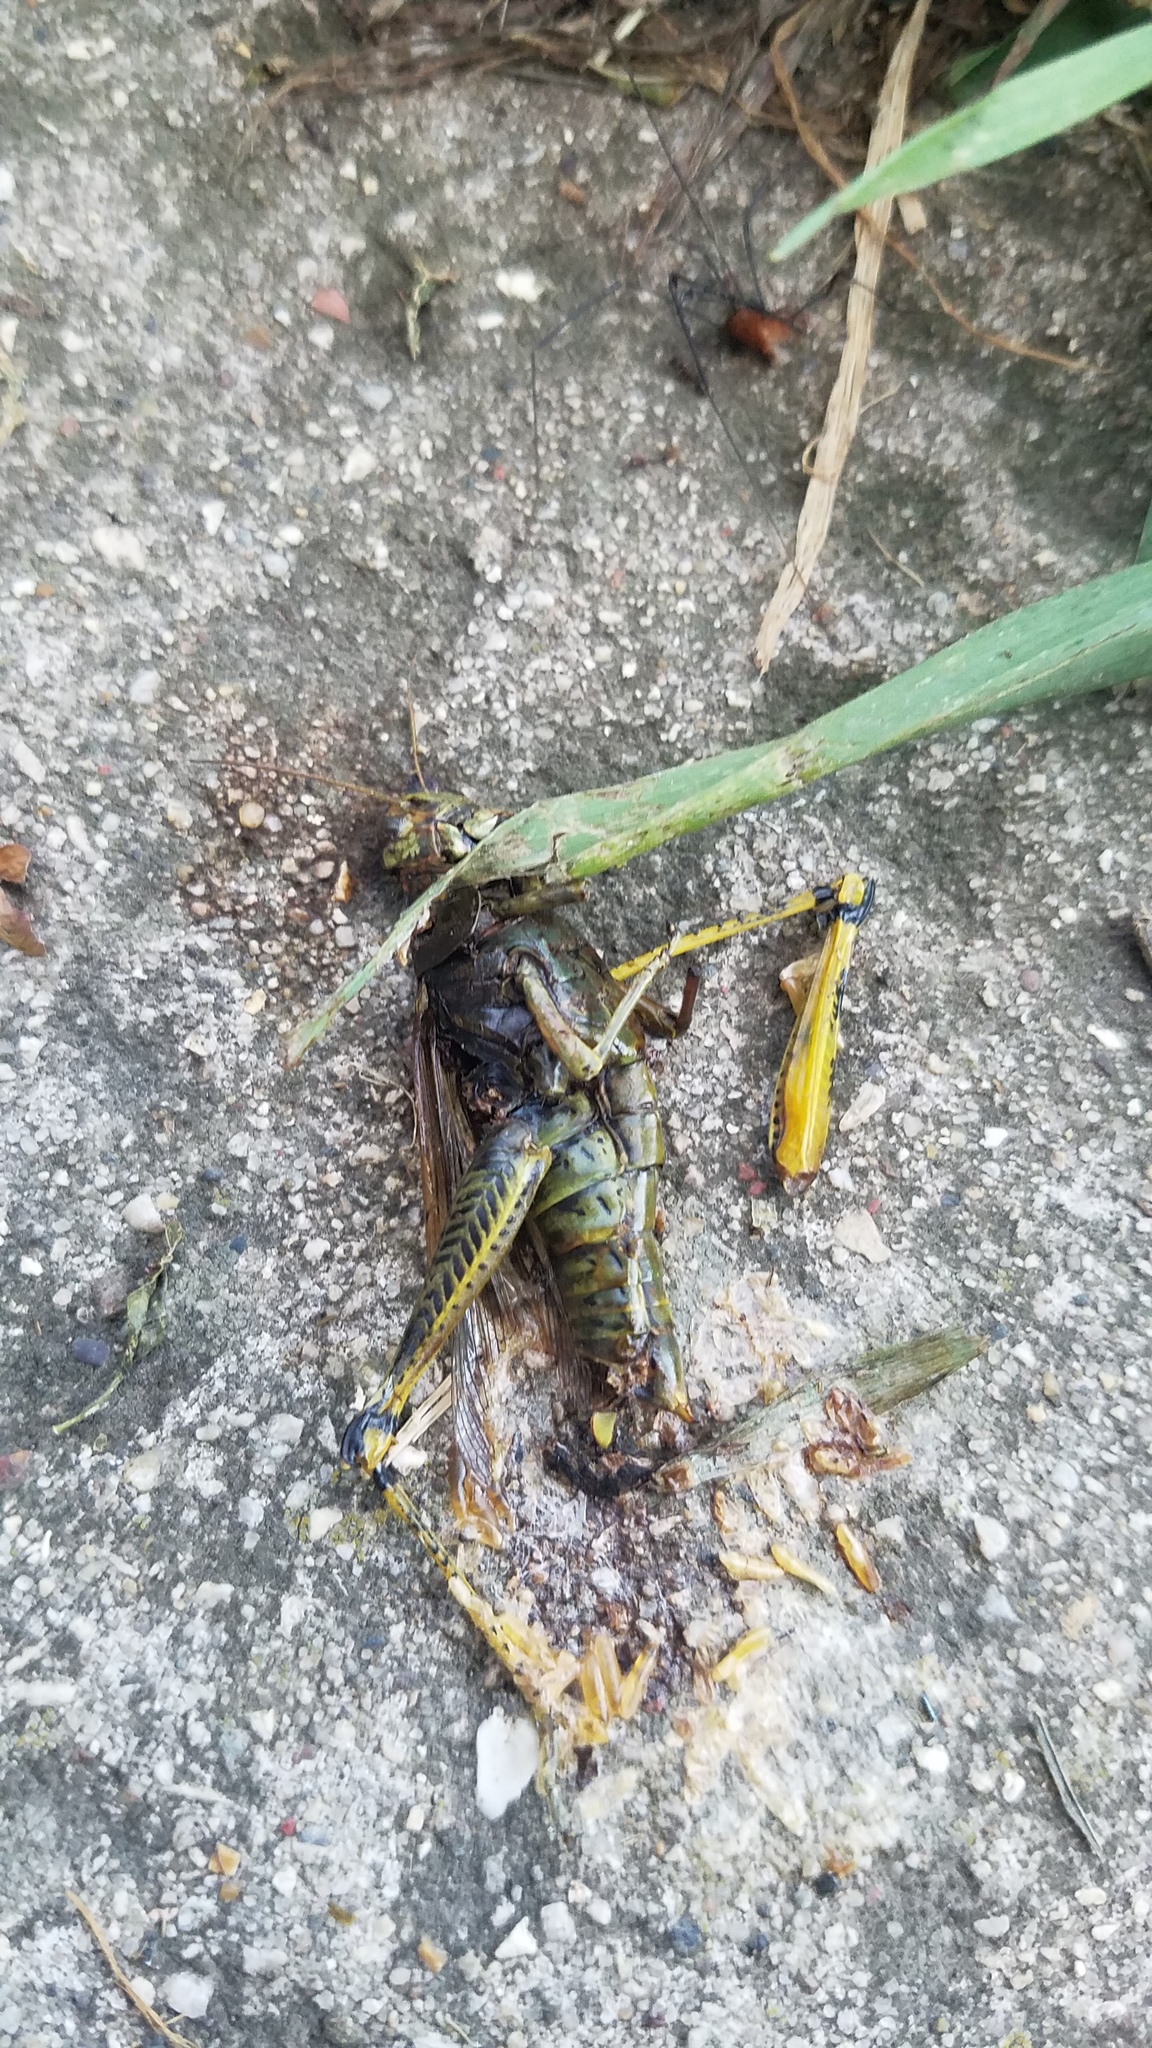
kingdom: Animalia
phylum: Arthropoda
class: Insecta
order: Orthoptera
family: Acrididae
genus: Melanoplus
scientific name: Melanoplus differentialis
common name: Differential grasshopper
